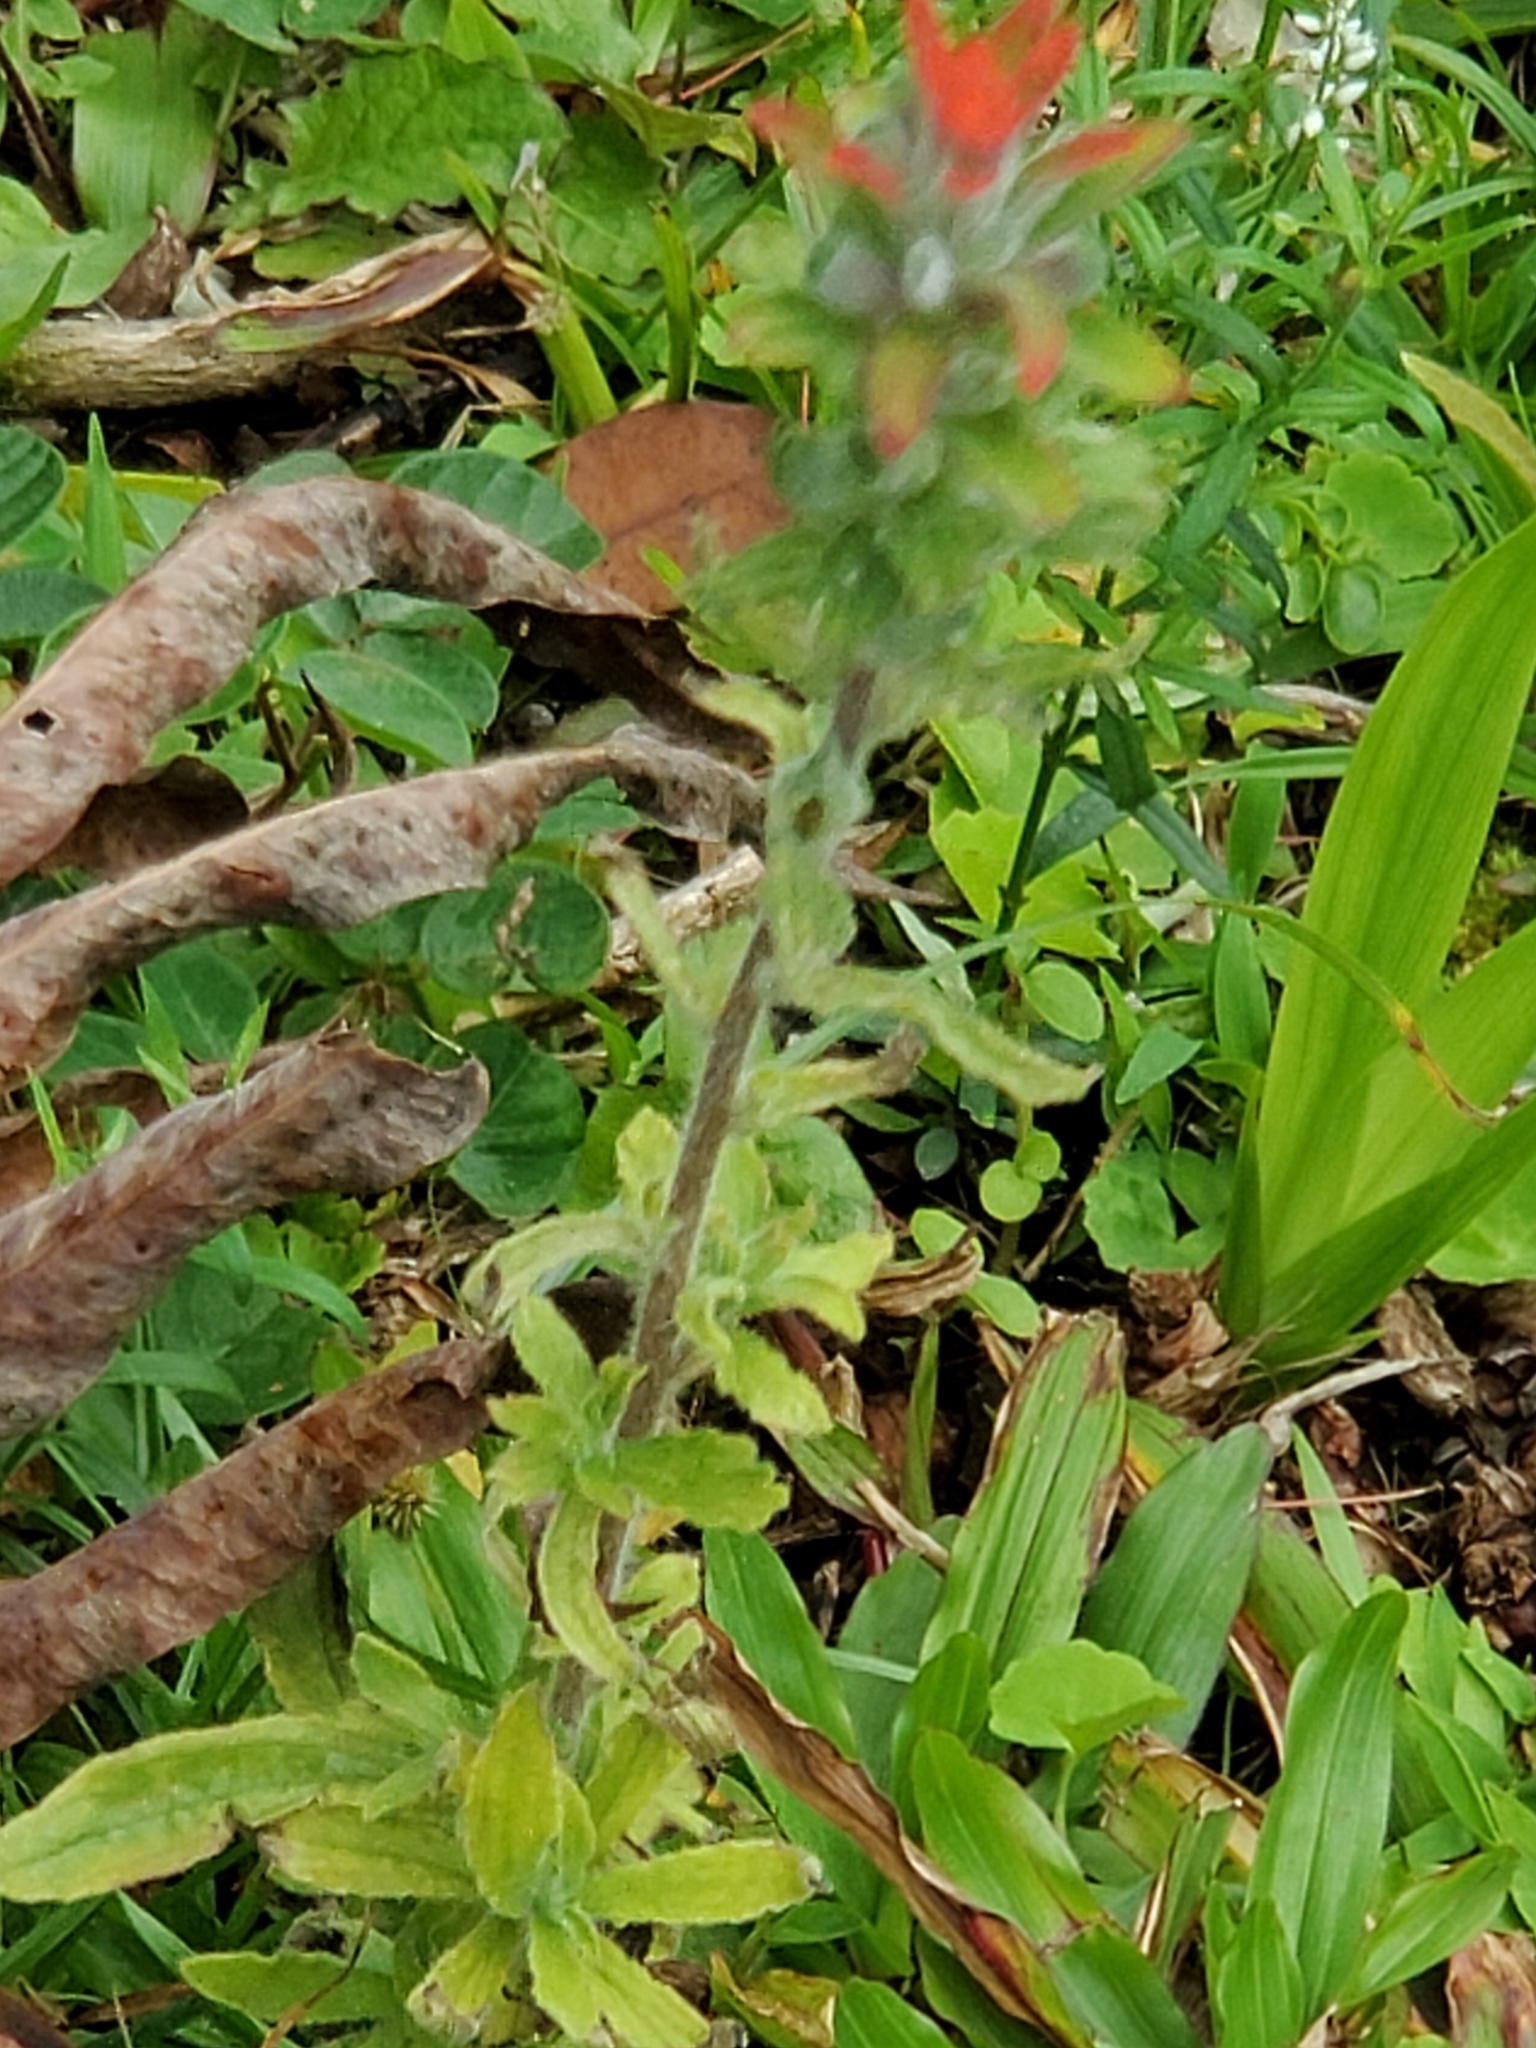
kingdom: Plantae
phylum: Tracheophyta
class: Magnoliopsida
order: Lamiales
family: Orobanchaceae
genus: Castilleja
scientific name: Castilleja arvensis
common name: Indian paintbrush
